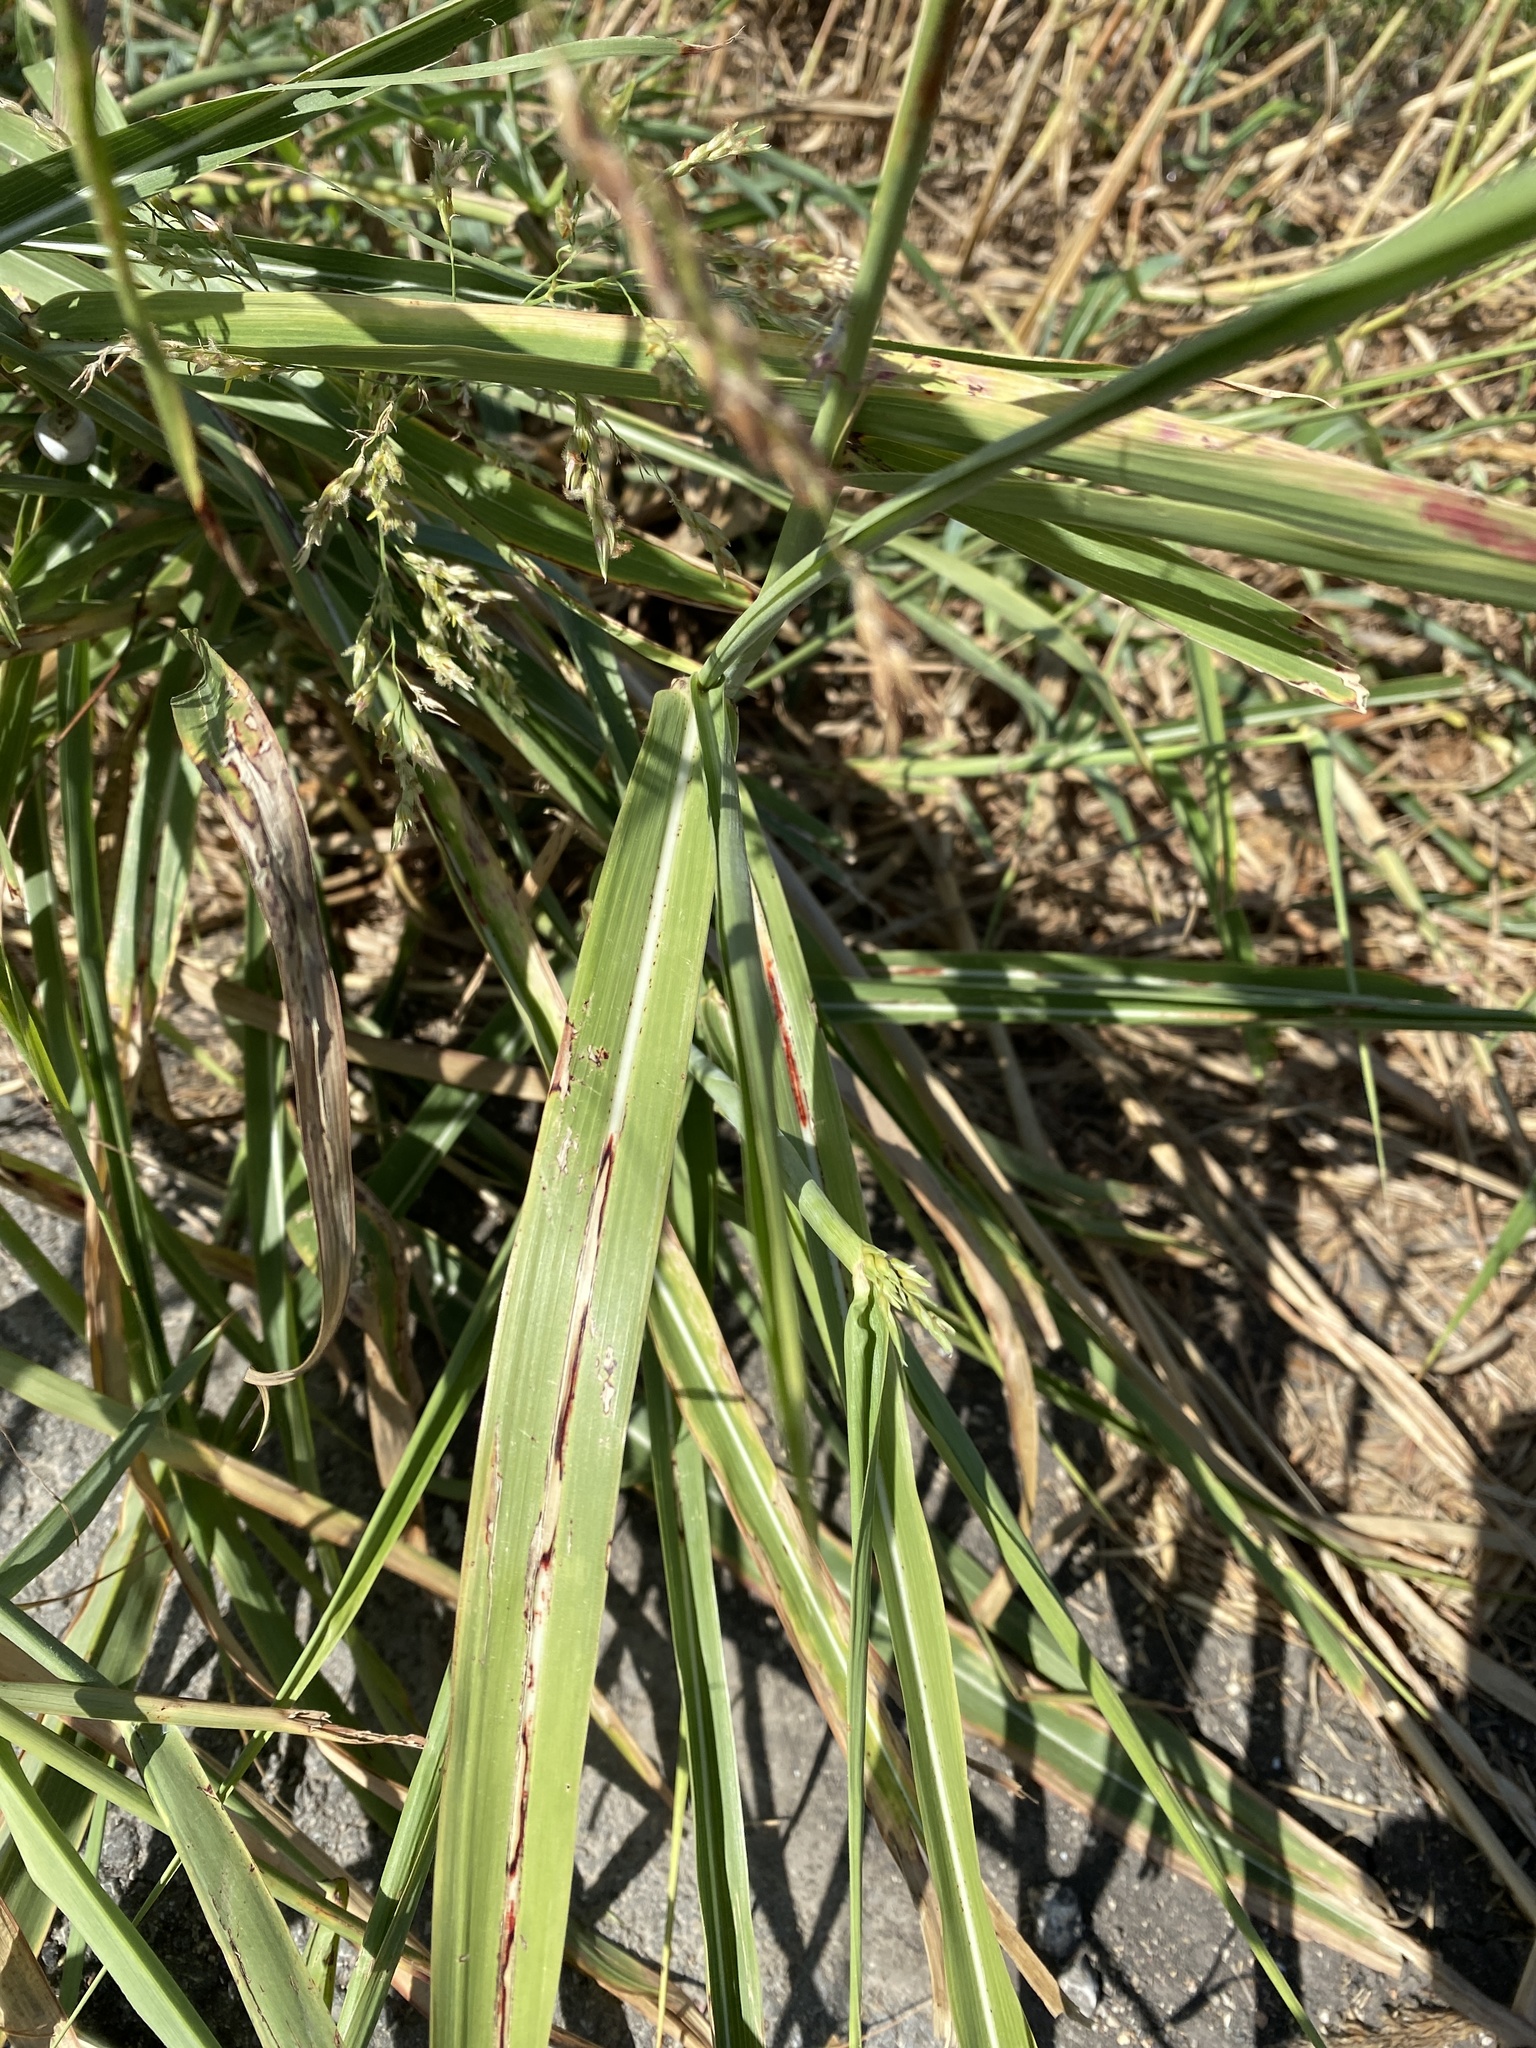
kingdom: Plantae
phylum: Tracheophyta
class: Liliopsida
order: Poales
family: Poaceae
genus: Sorghum
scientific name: Sorghum halepense
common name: Johnson-grass
